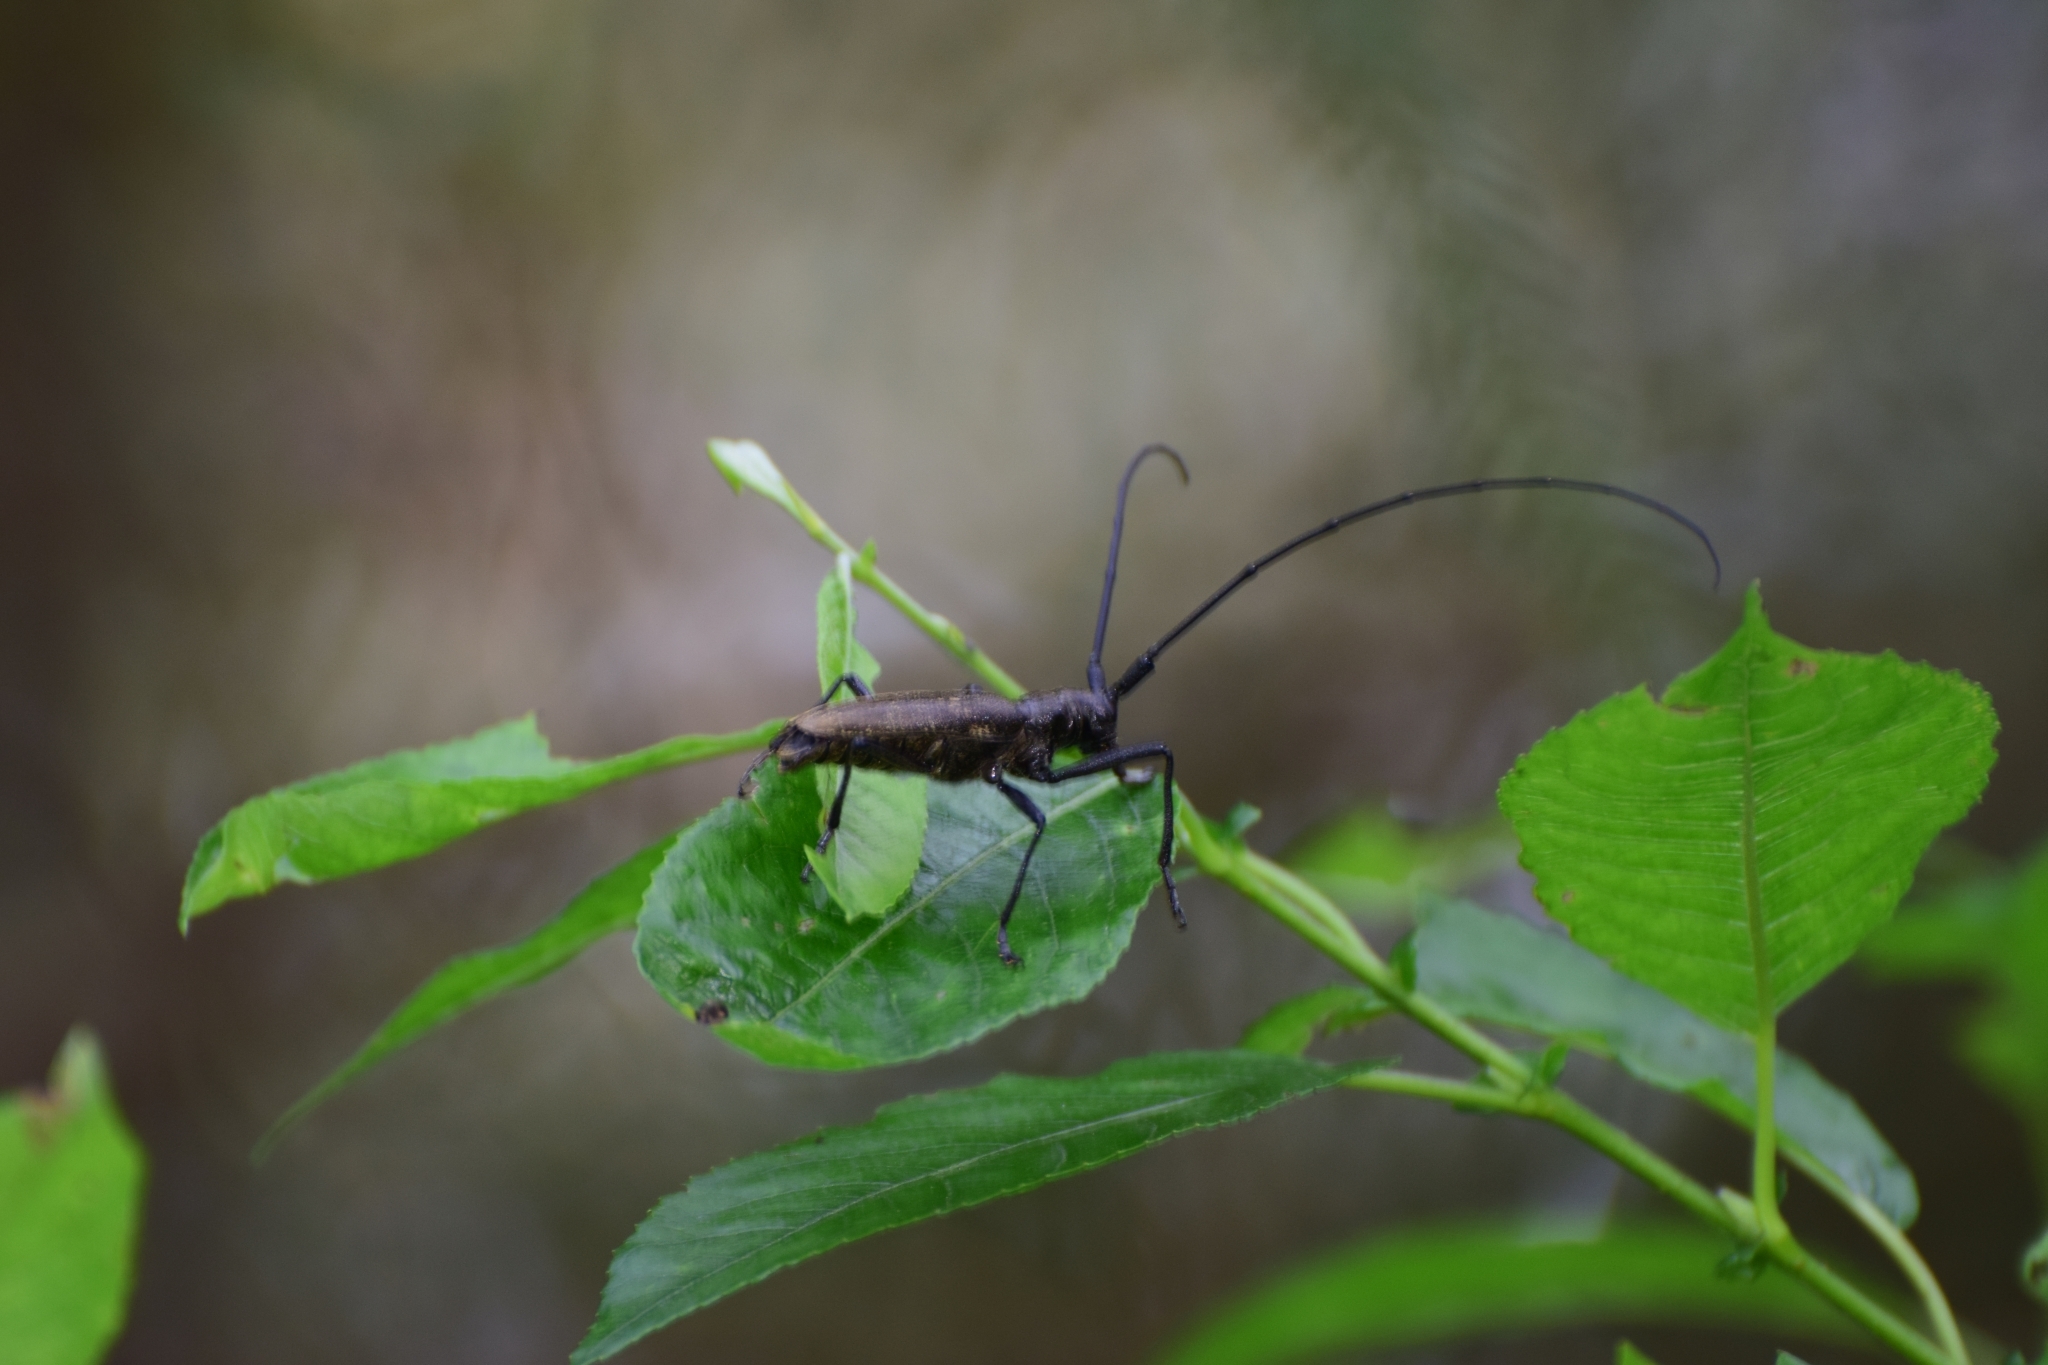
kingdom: Animalia
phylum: Arthropoda
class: Insecta
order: Coleoptera
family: Cerambycidae
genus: Monochamus
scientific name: Monochamus sartor
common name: Pine sawyer
